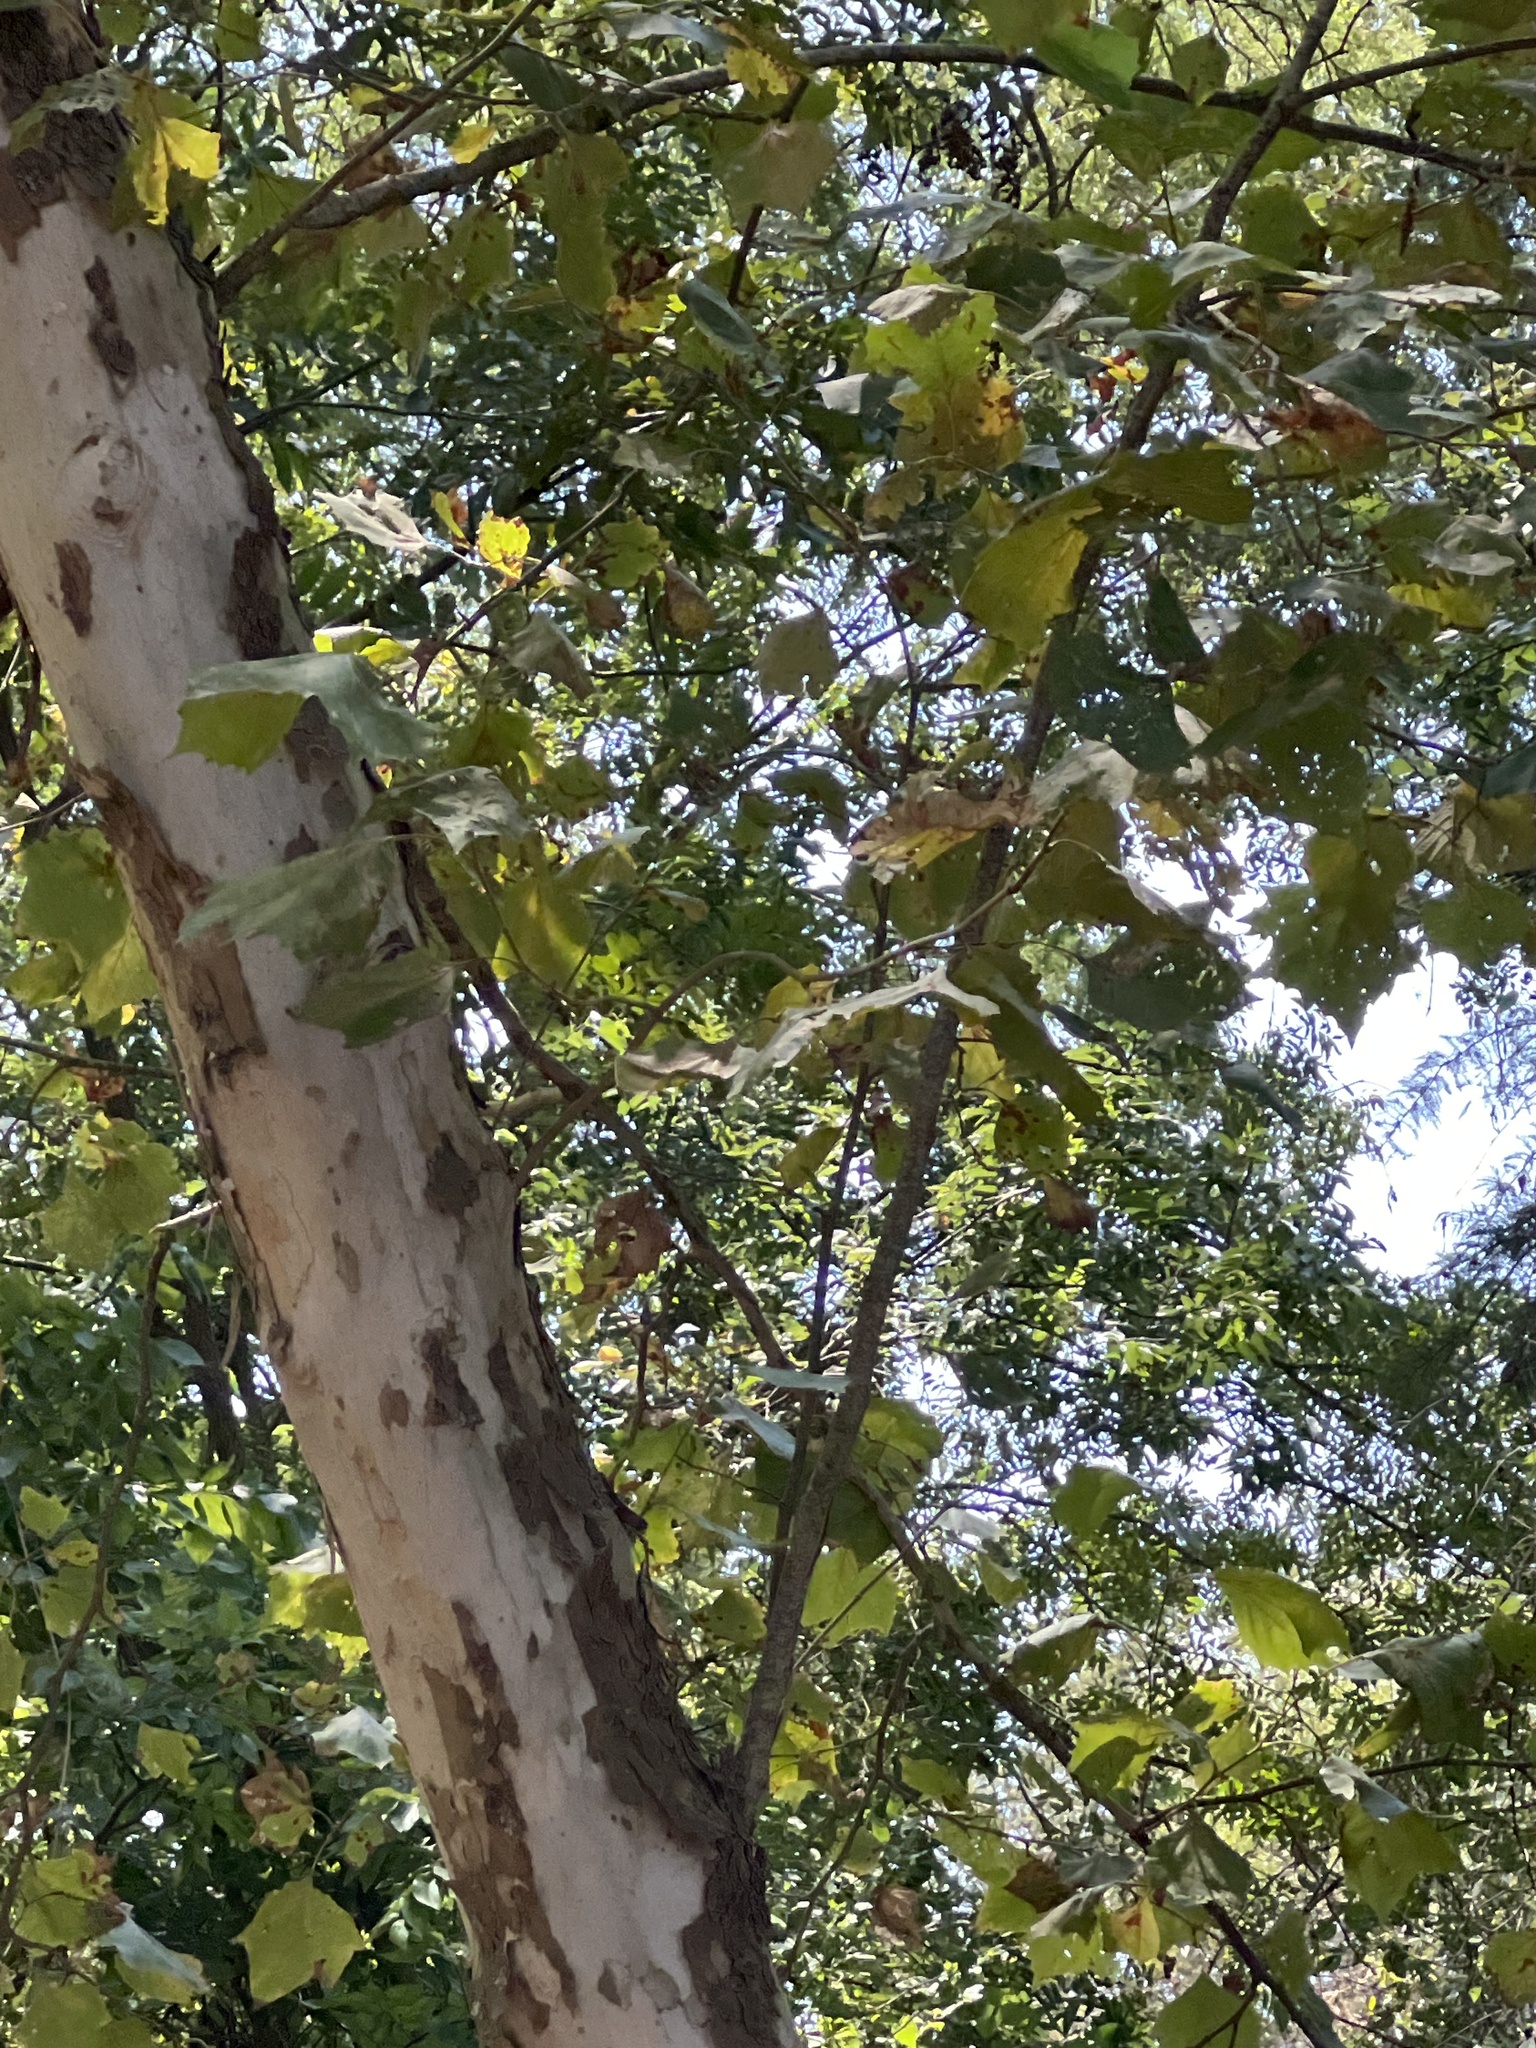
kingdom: Plantae
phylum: Tracheophyta
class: Magnoliopsida
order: Proteales
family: Platanaceae
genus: Platanus
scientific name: Platanus occidentalis
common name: American sycamore
